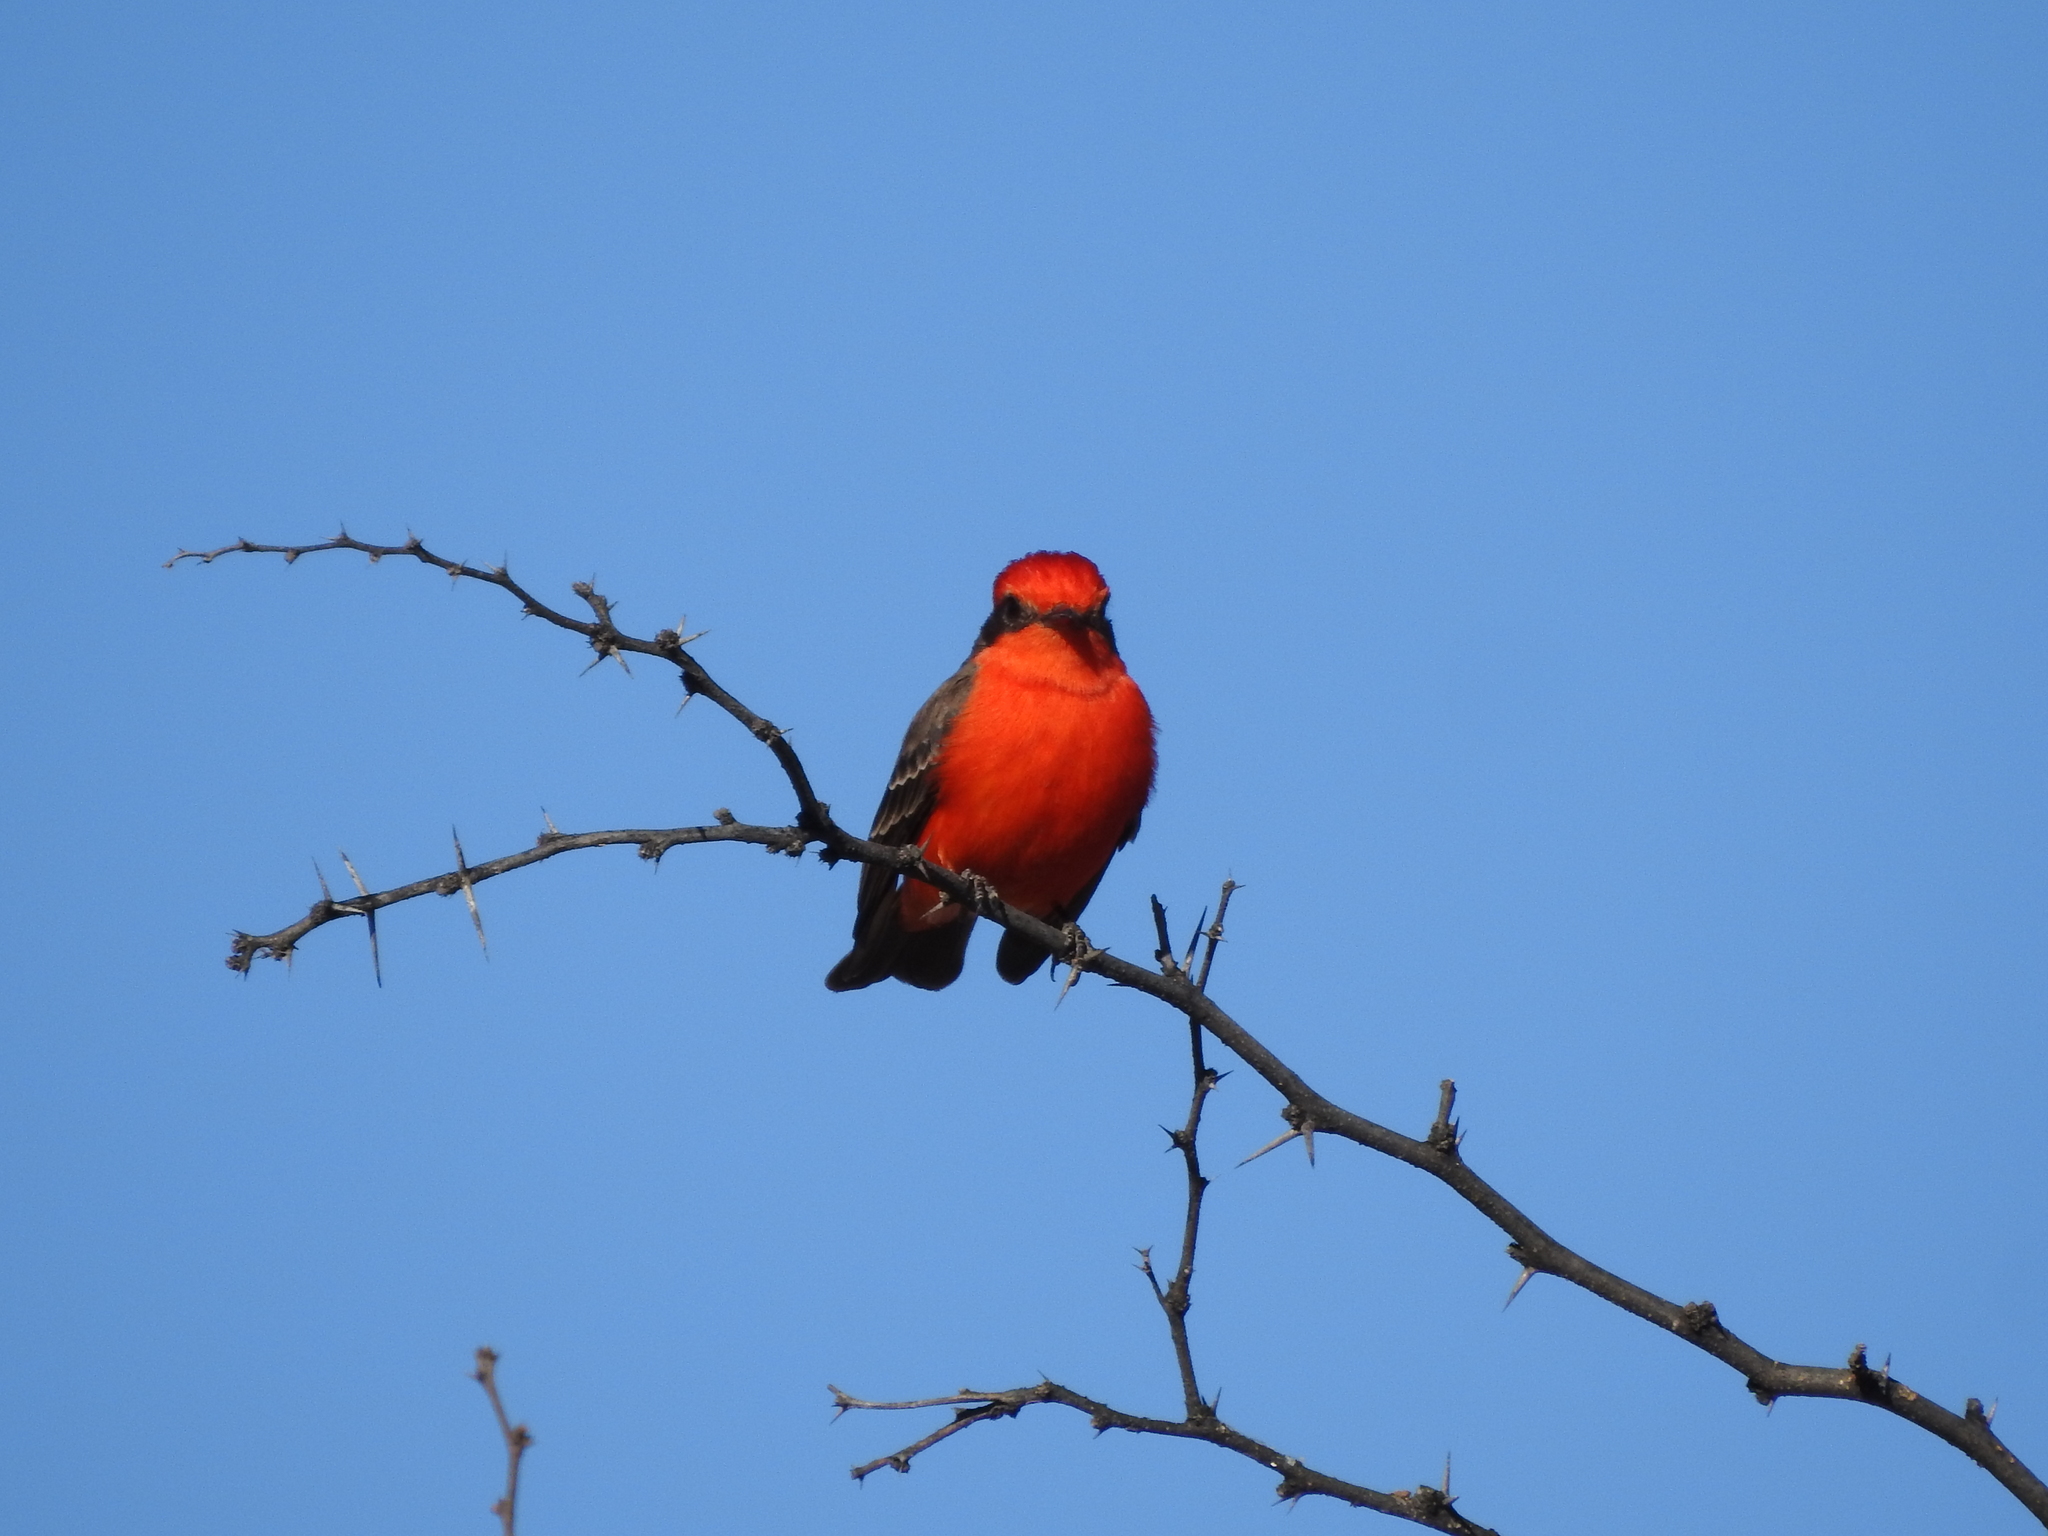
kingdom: Animalia
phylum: Chordata
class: Aves
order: Passeriformes
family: Tyrannidae
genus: Pyrocephalus
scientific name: Pyrocephalus rubinus
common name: Vermilion flycatcher
